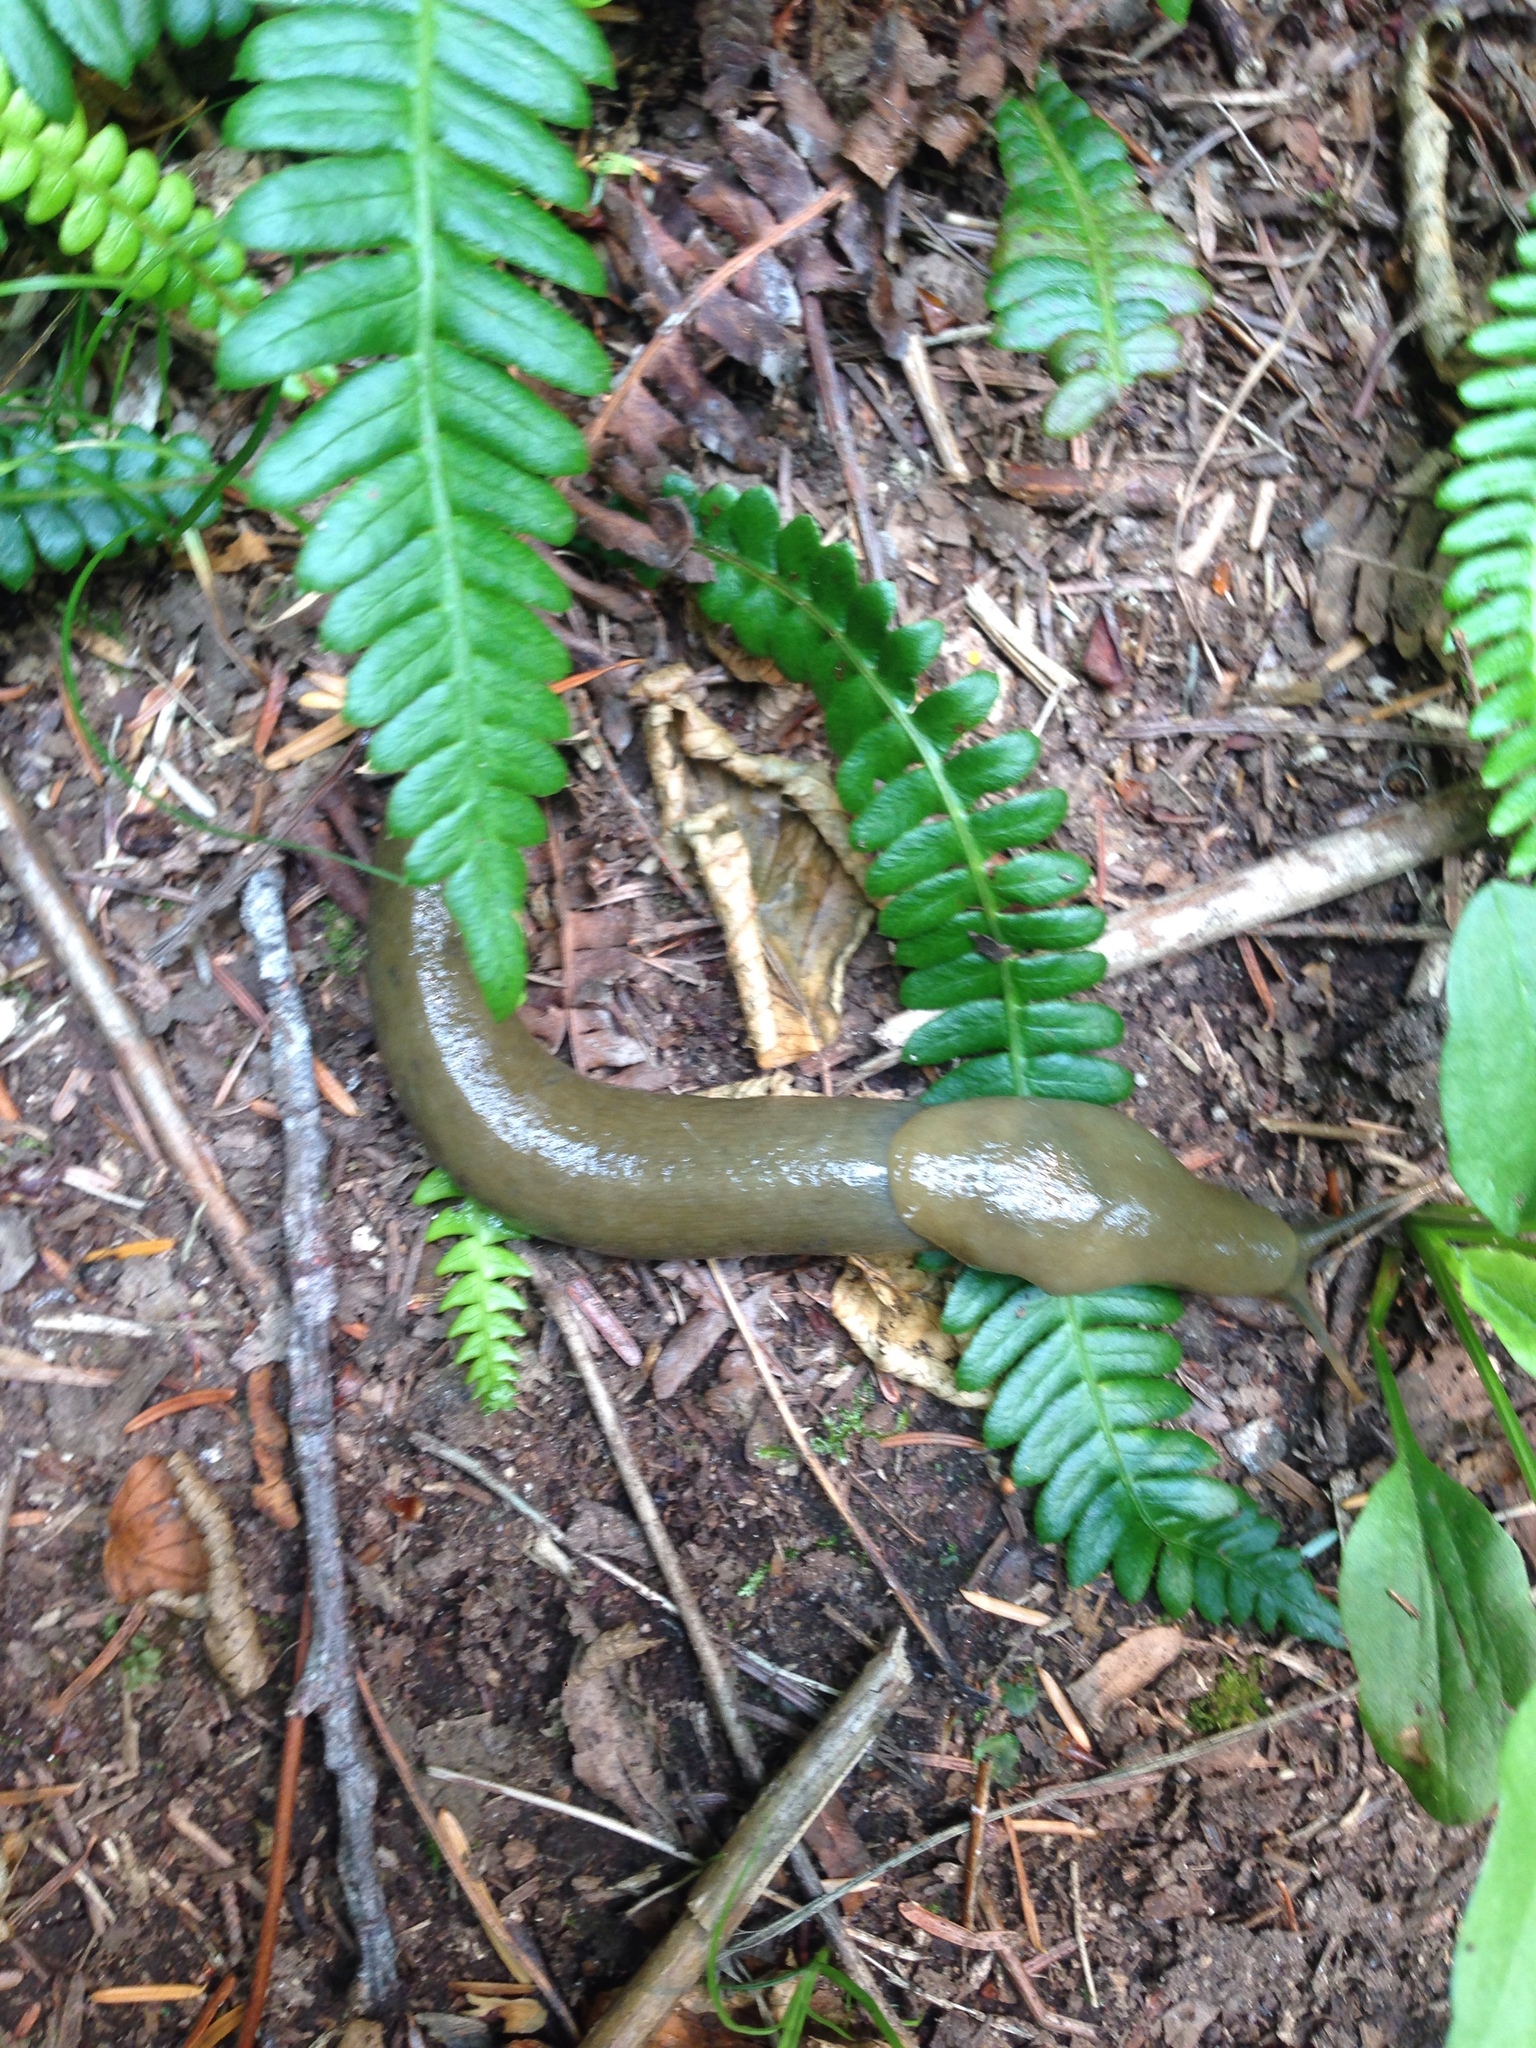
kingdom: Animalia
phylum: Mollusca
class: Gastropoda
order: Stylommatophora
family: Ariolimacidae
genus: Ariolimax
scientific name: Ariolimax columbianus
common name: Pacific banana slug
